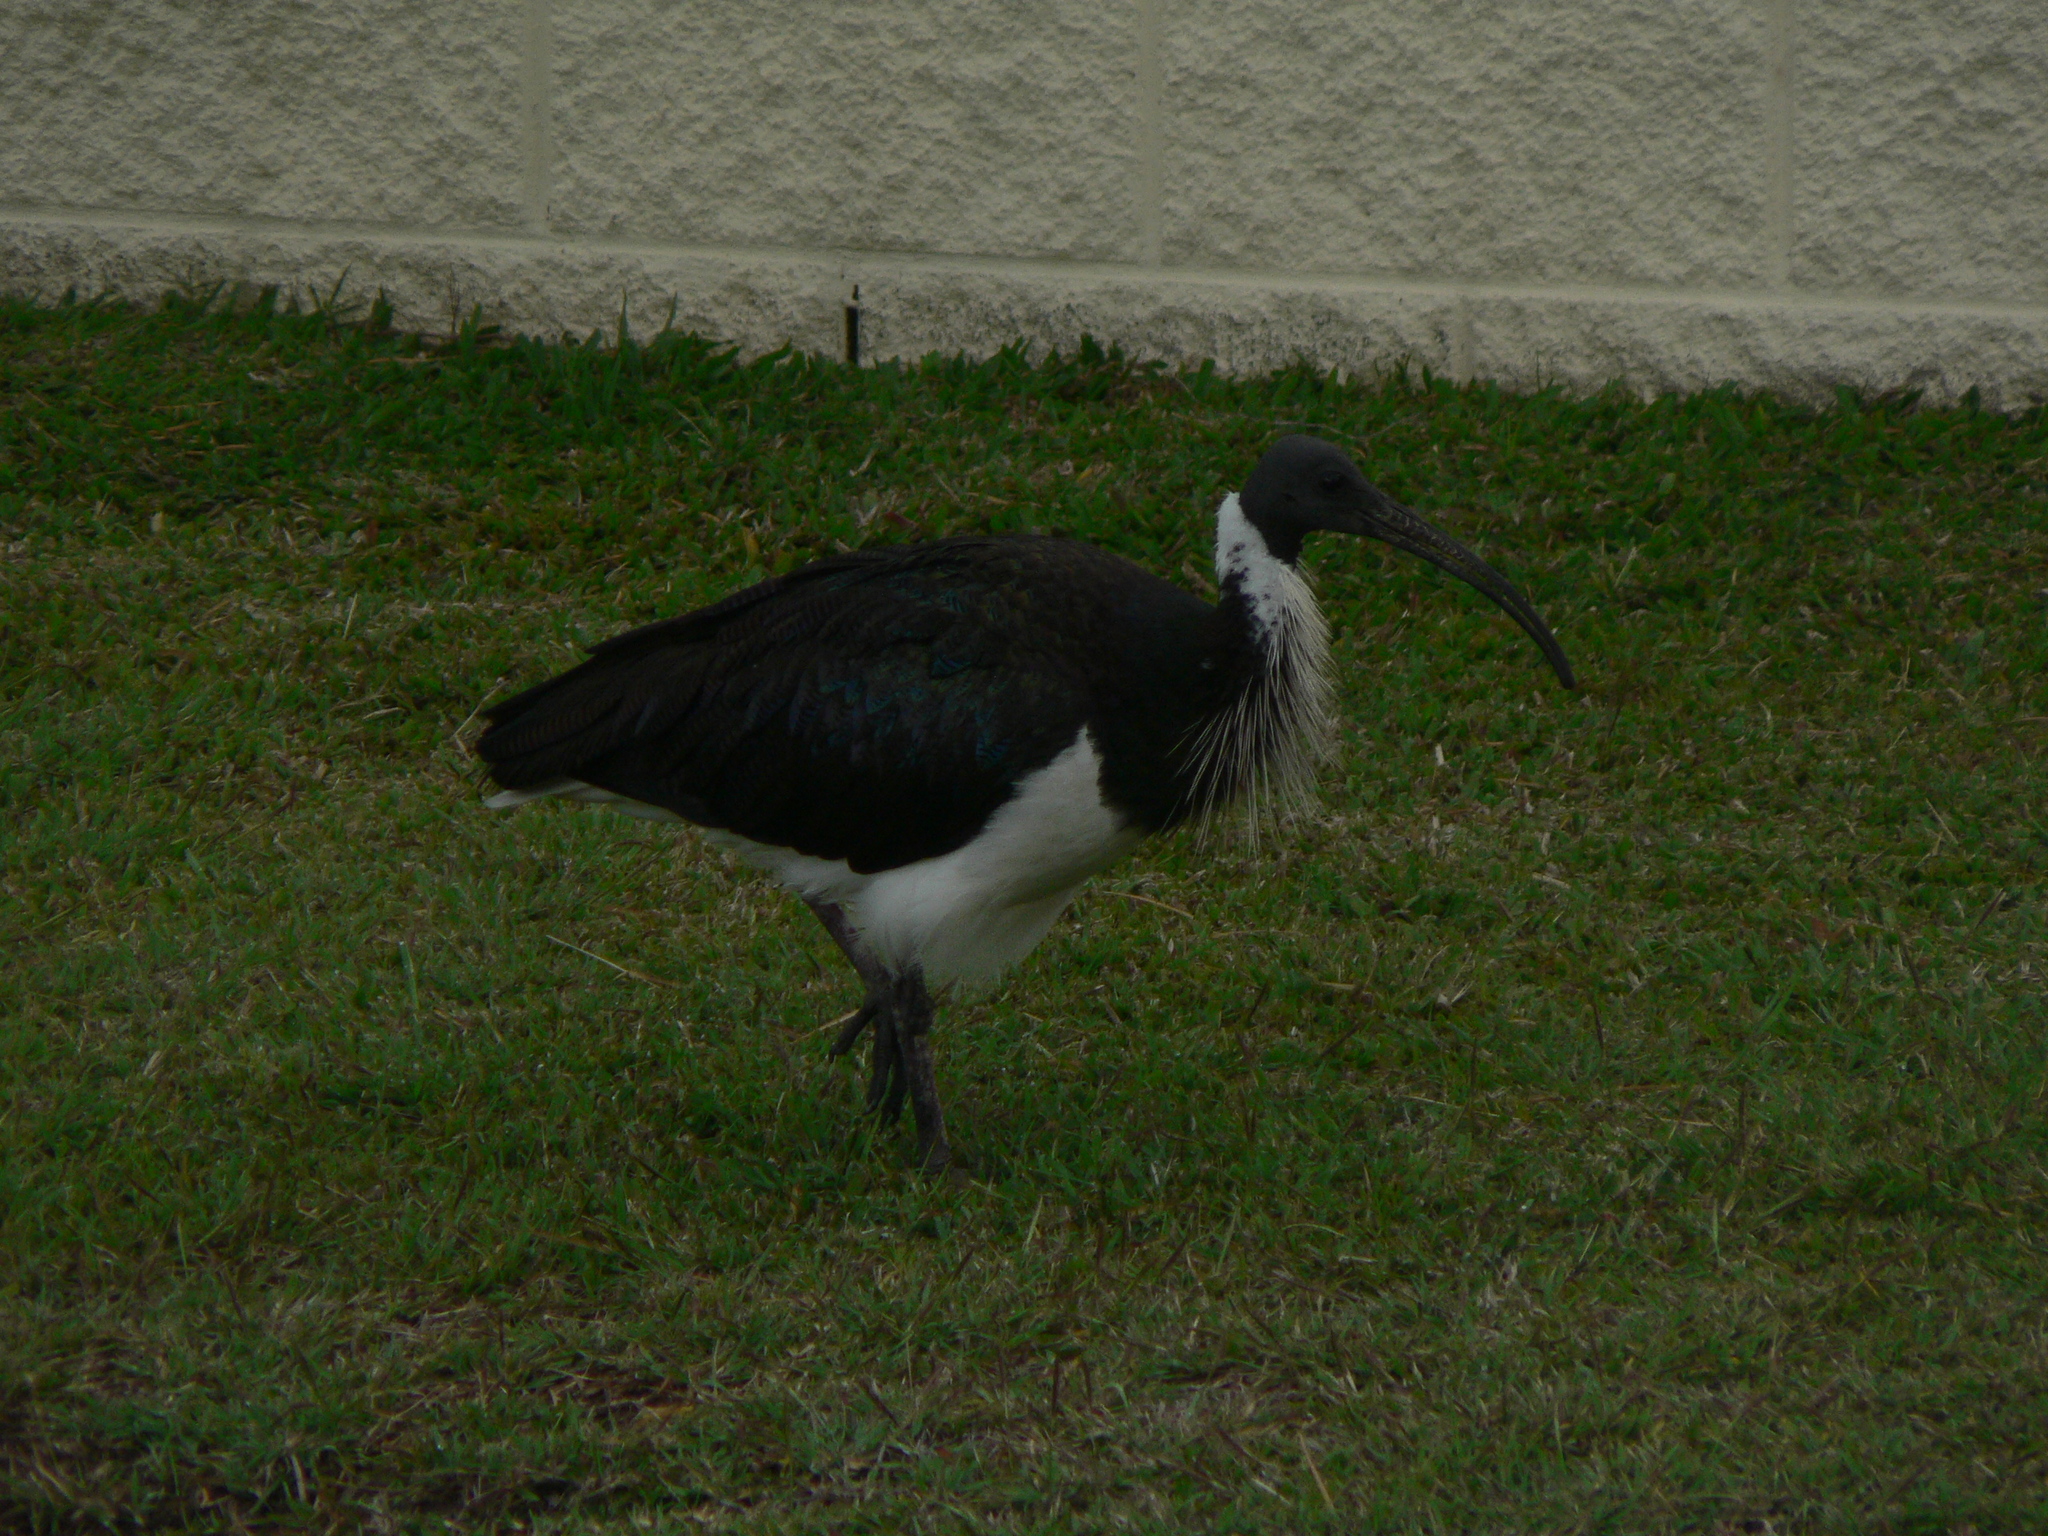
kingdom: Animalia
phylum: Chordata
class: Aves
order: Pelecaniformes
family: Threskiornithidae
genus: Threskiornis
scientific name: Threskiornis spinicollis
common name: Straw-necked ibis
